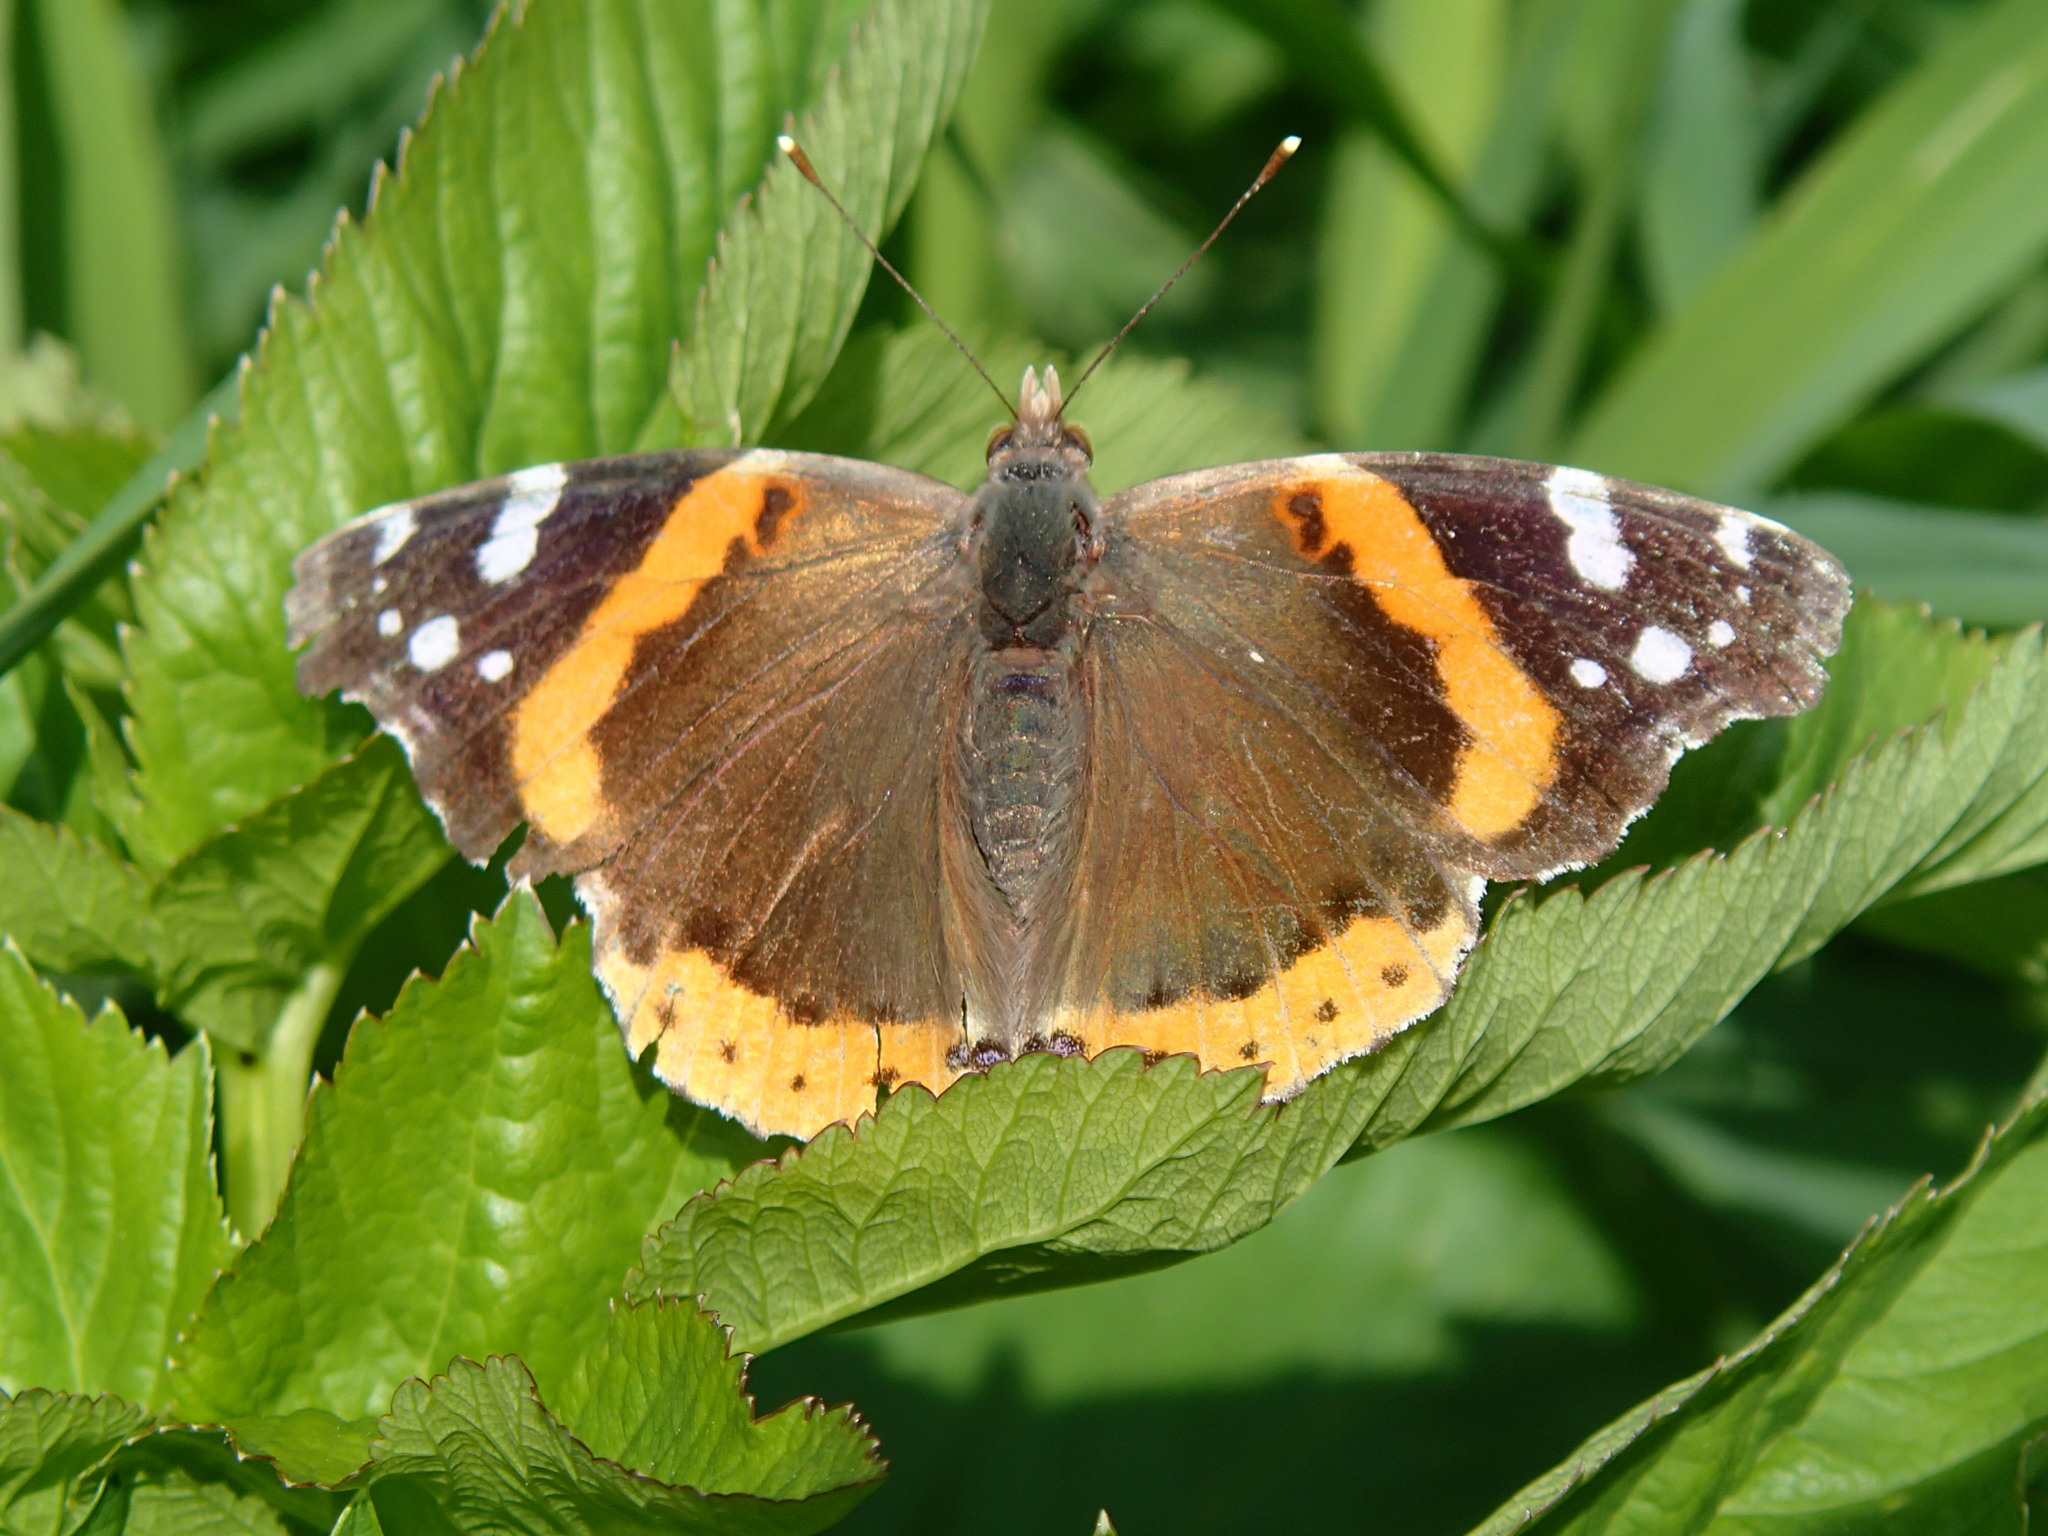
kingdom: Animalia
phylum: Arthropoda
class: Insecta
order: Lepidoptera
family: Nymphalidae
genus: Vanessa
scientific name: Vanessa atalanta
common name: Red admiral
